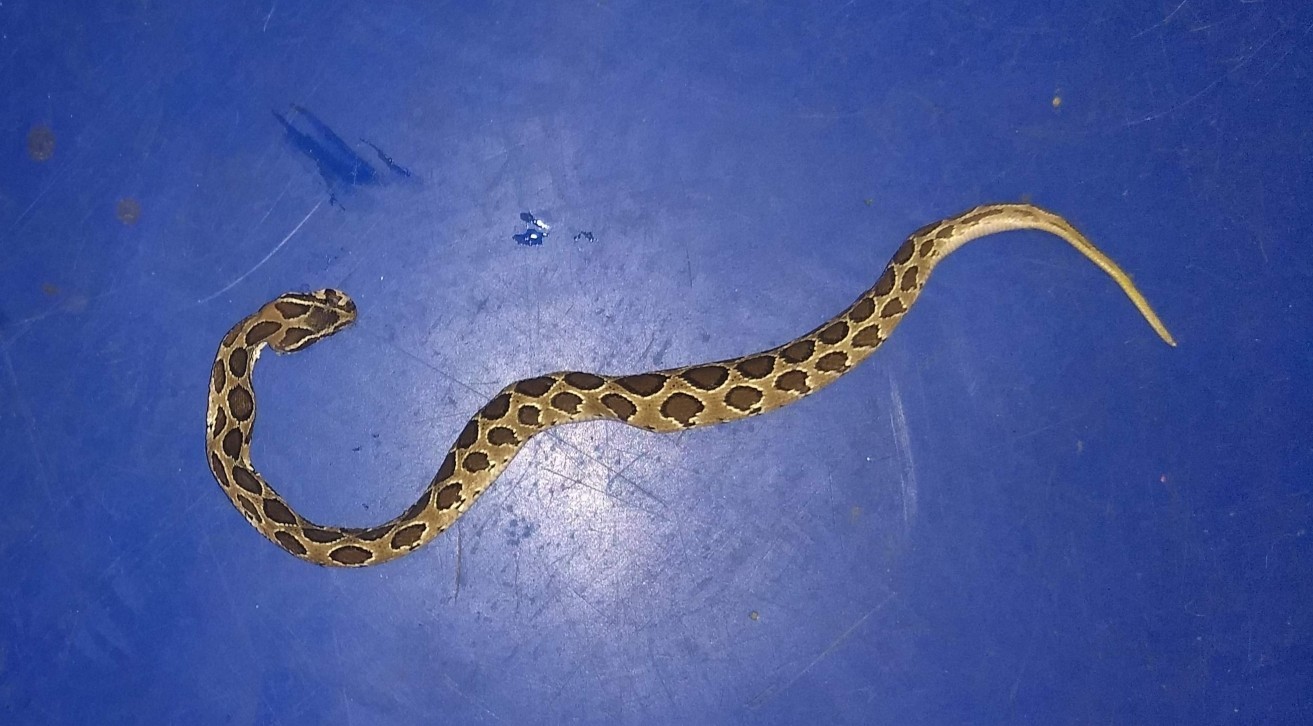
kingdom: Animalia
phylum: Chordata
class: Squamata
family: Viperidae
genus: Daboia
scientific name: Daboia russelii
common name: Western russel’s viper
